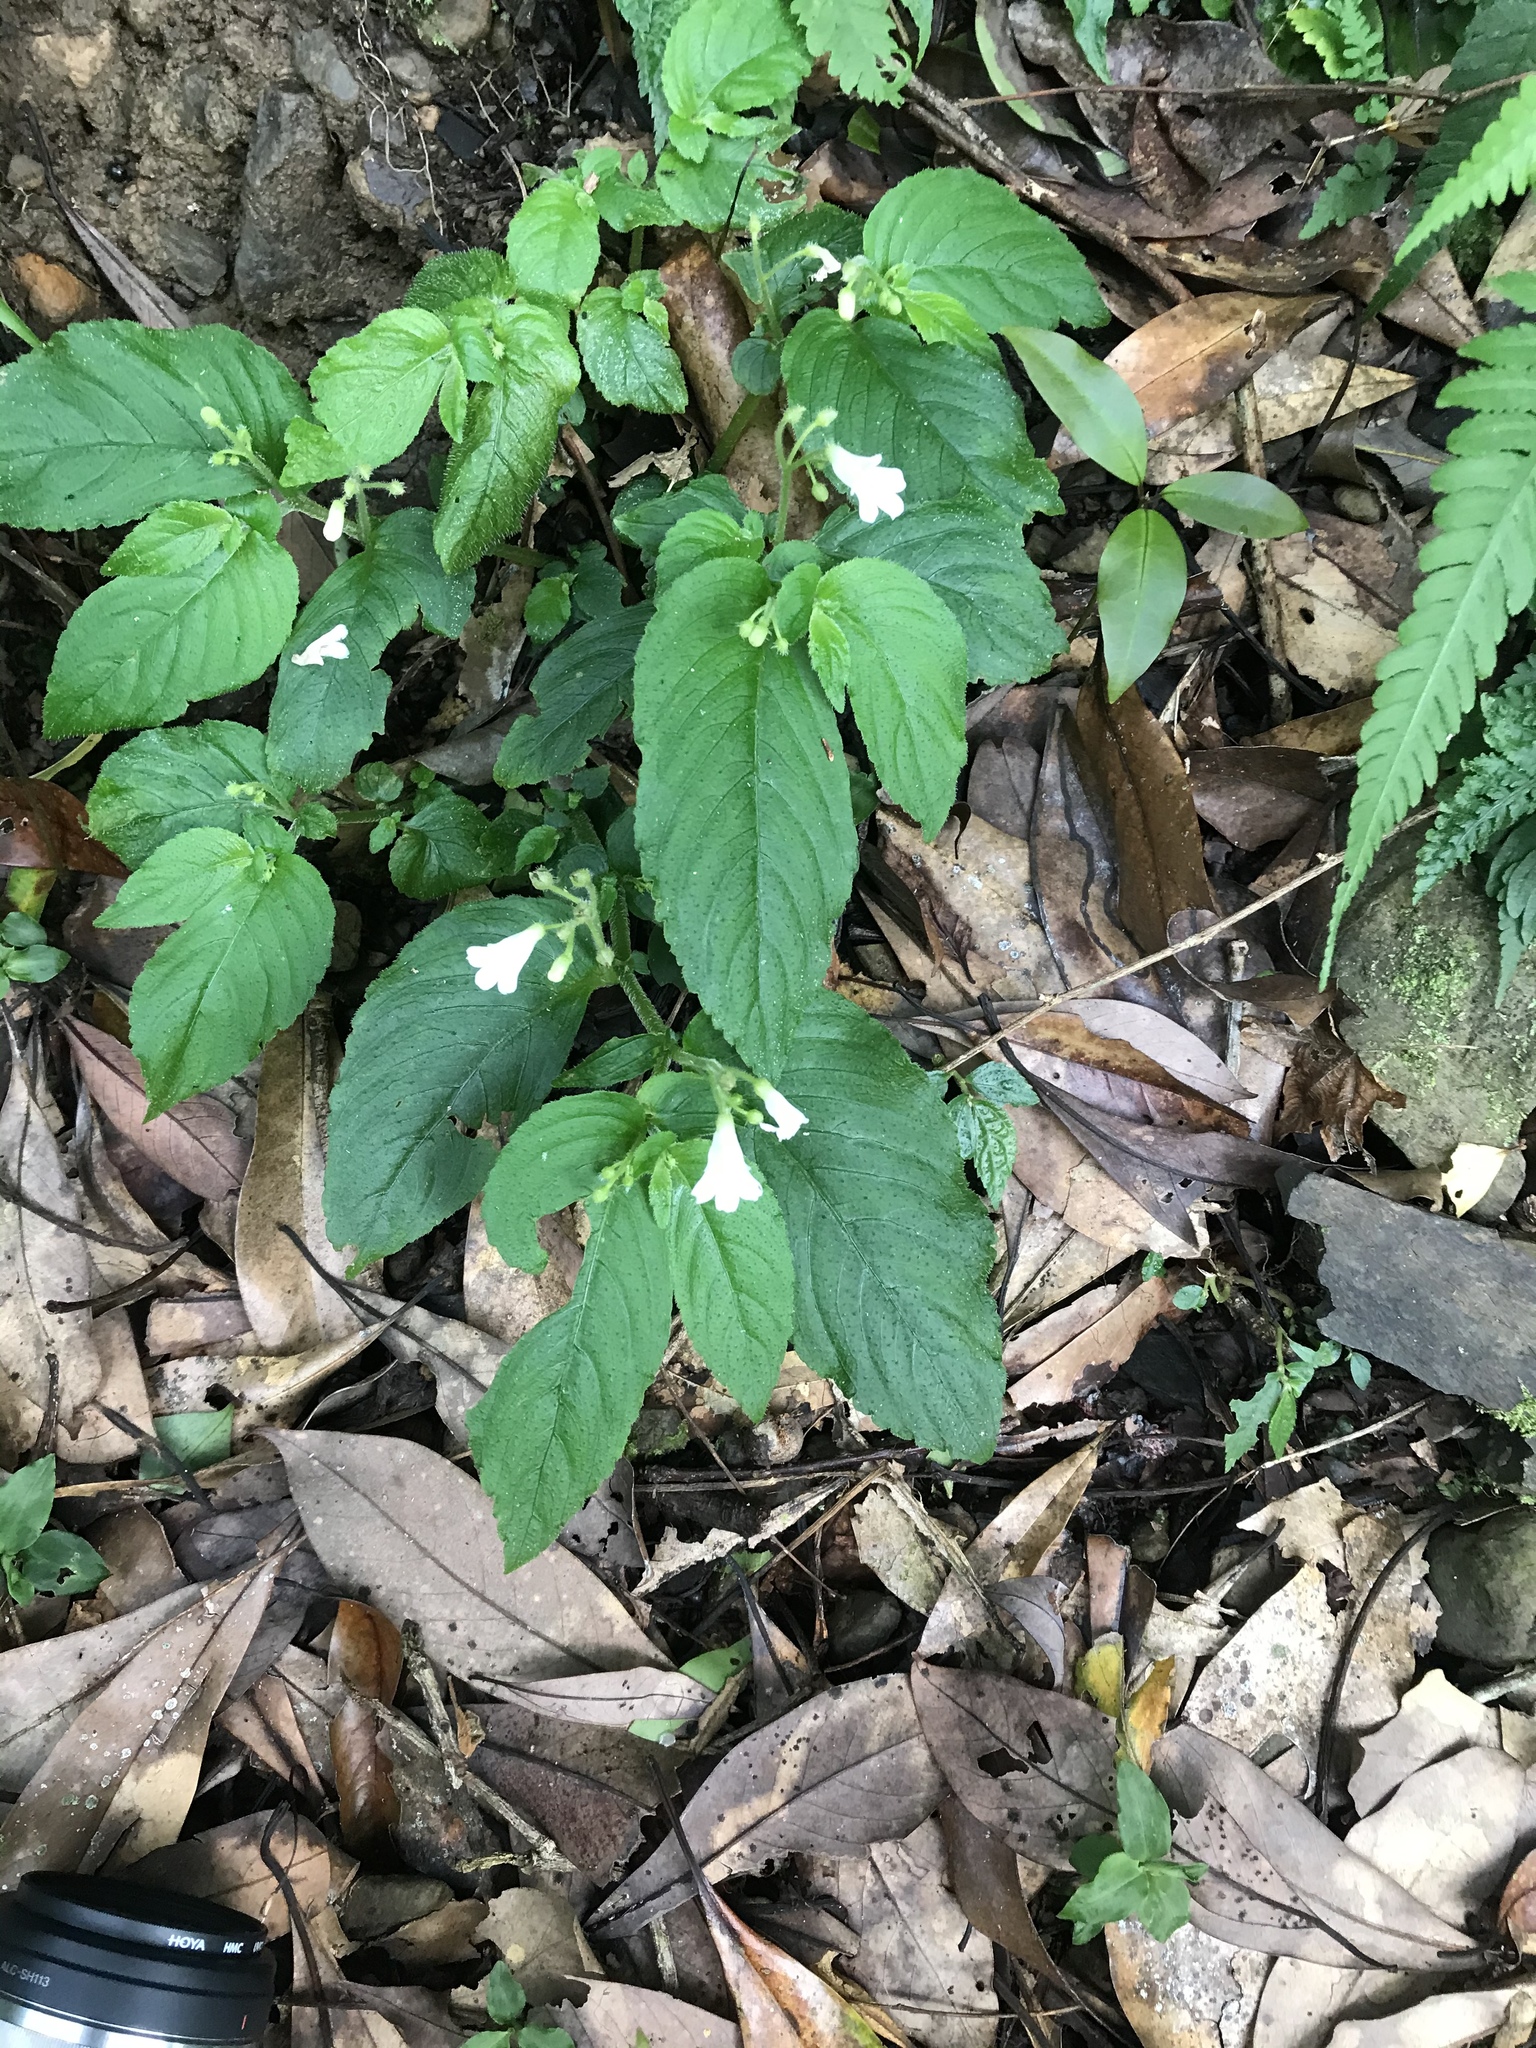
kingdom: Plantae
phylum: Tracheophyta
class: Magnoliopsida
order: Lamiales
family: Gesneriaceae
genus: Whytockia
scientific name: Whytockia sasakii
